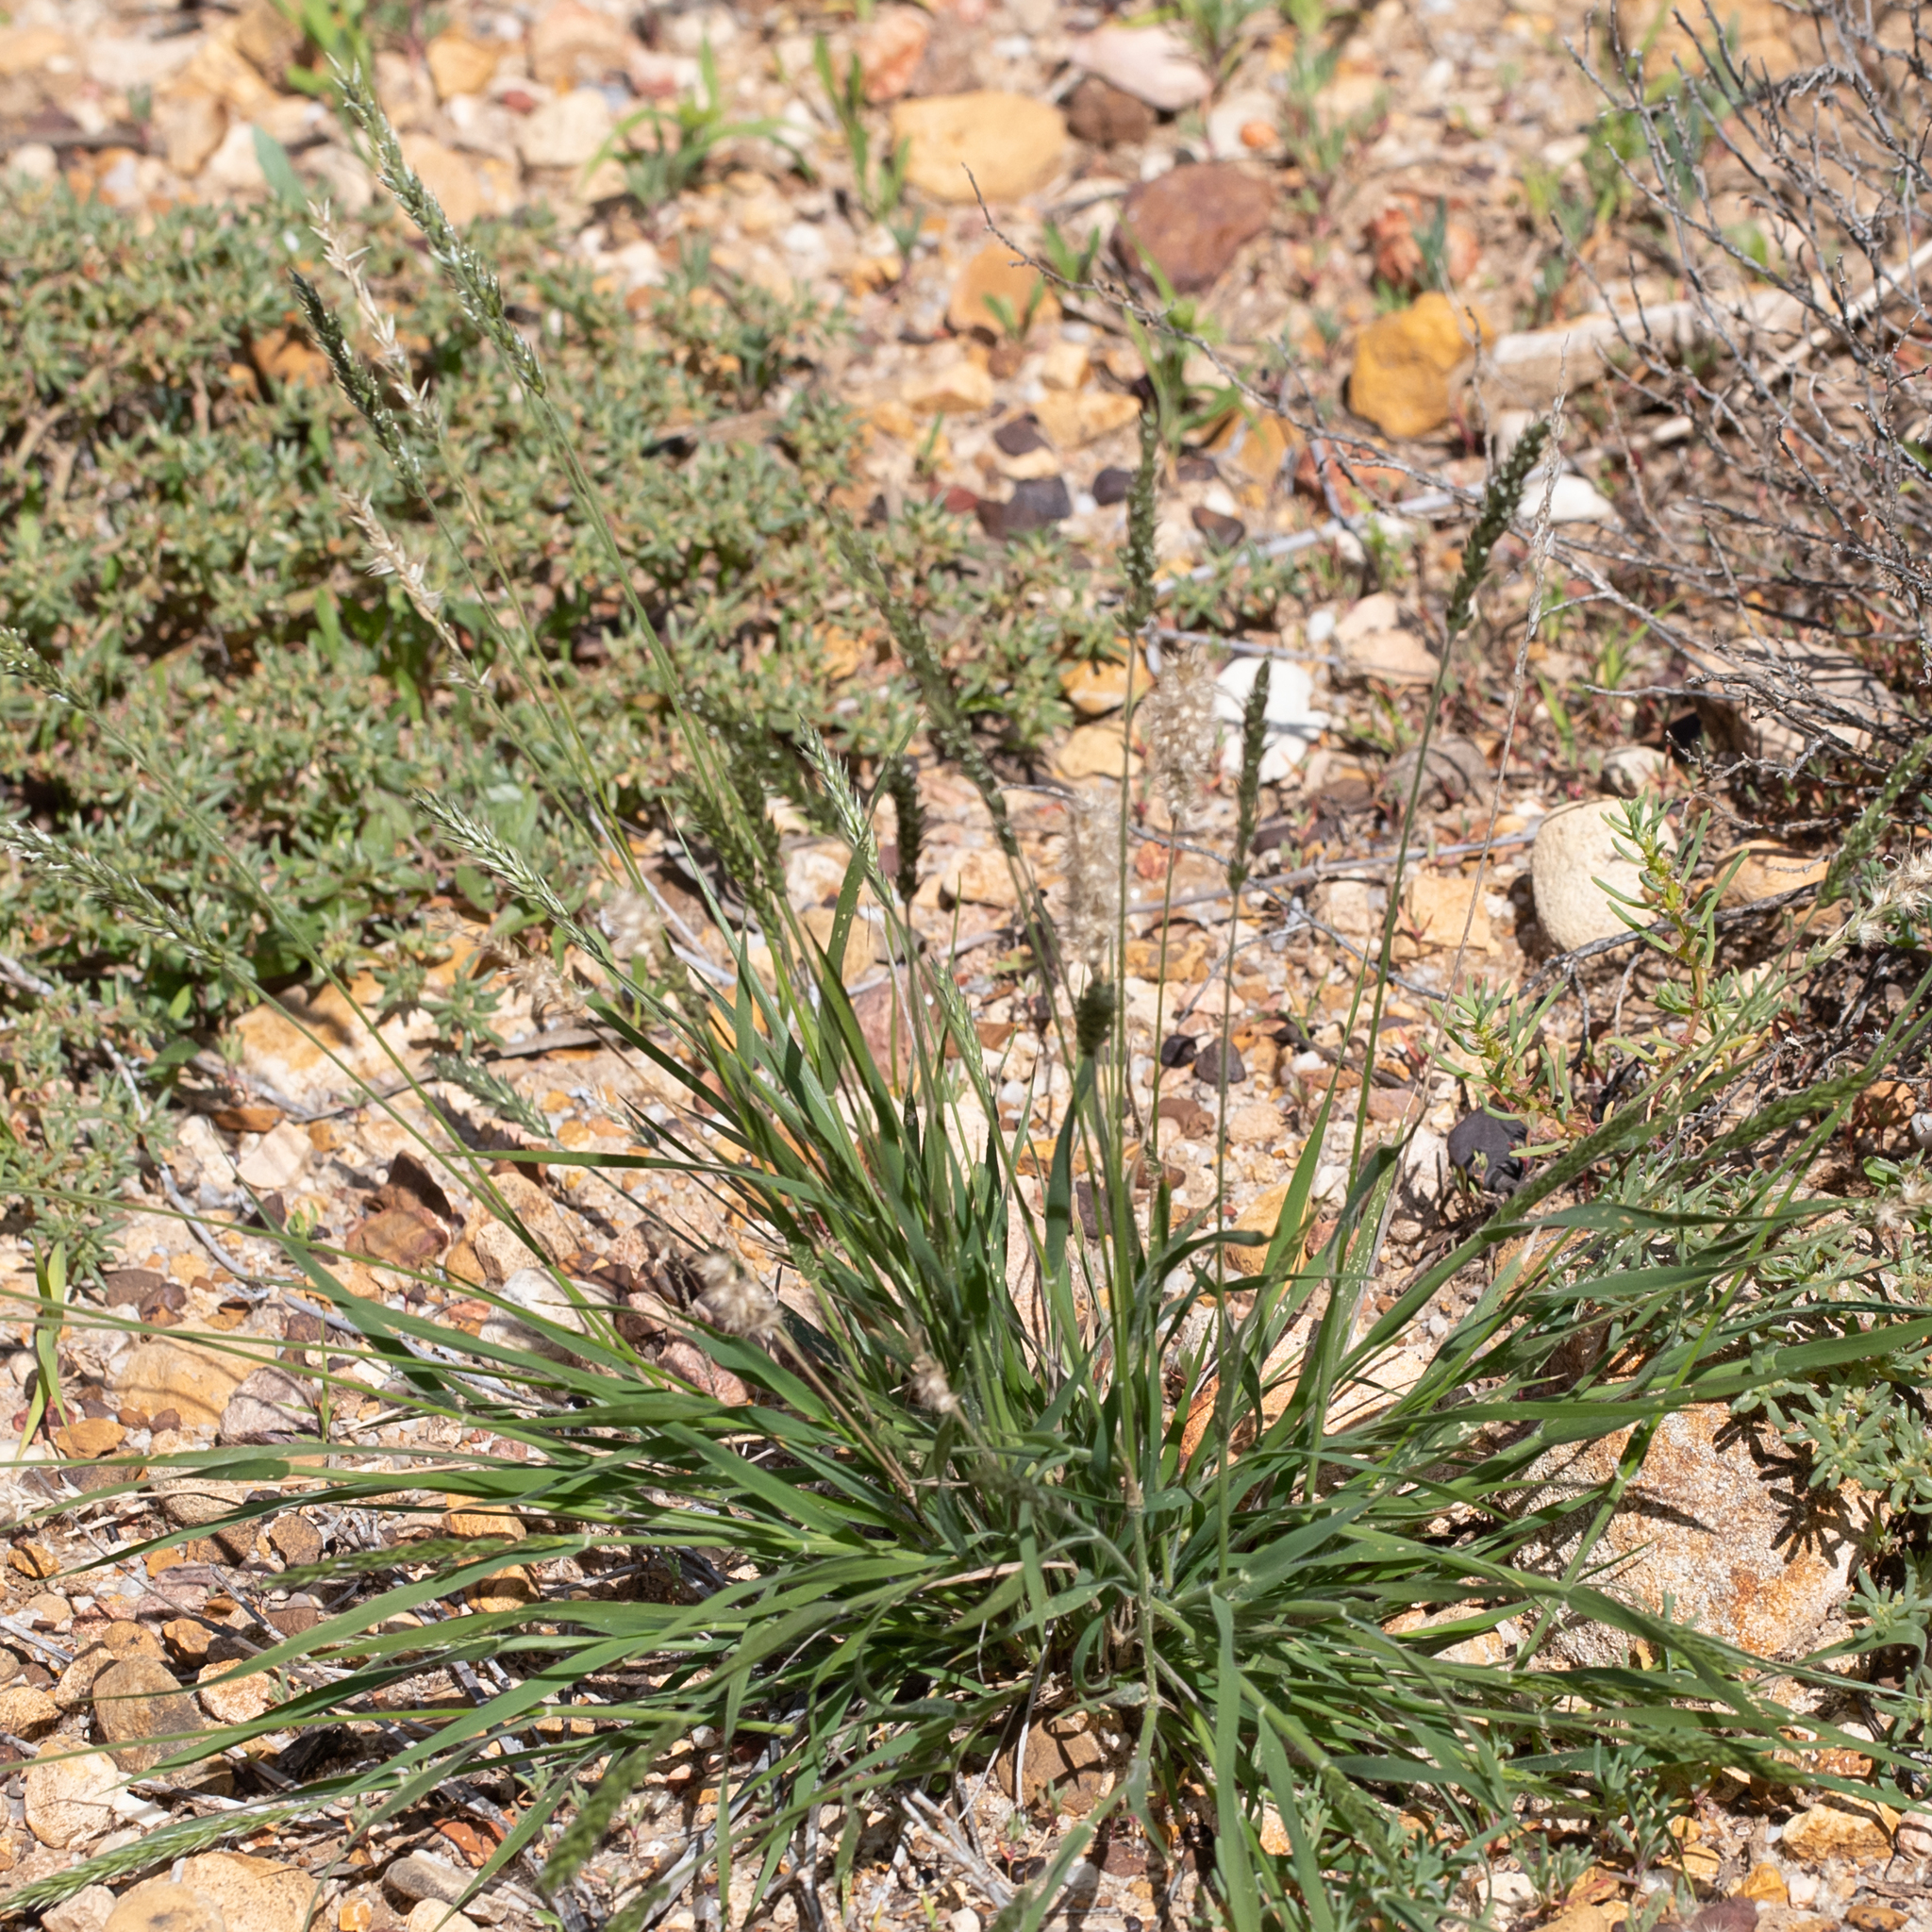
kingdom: Plantae
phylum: Tracheophyta
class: Liliopsida
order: Poales
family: Poaceae
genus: Enneapogon
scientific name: Enneapogon polyphyllus
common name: Leafy nineawn
